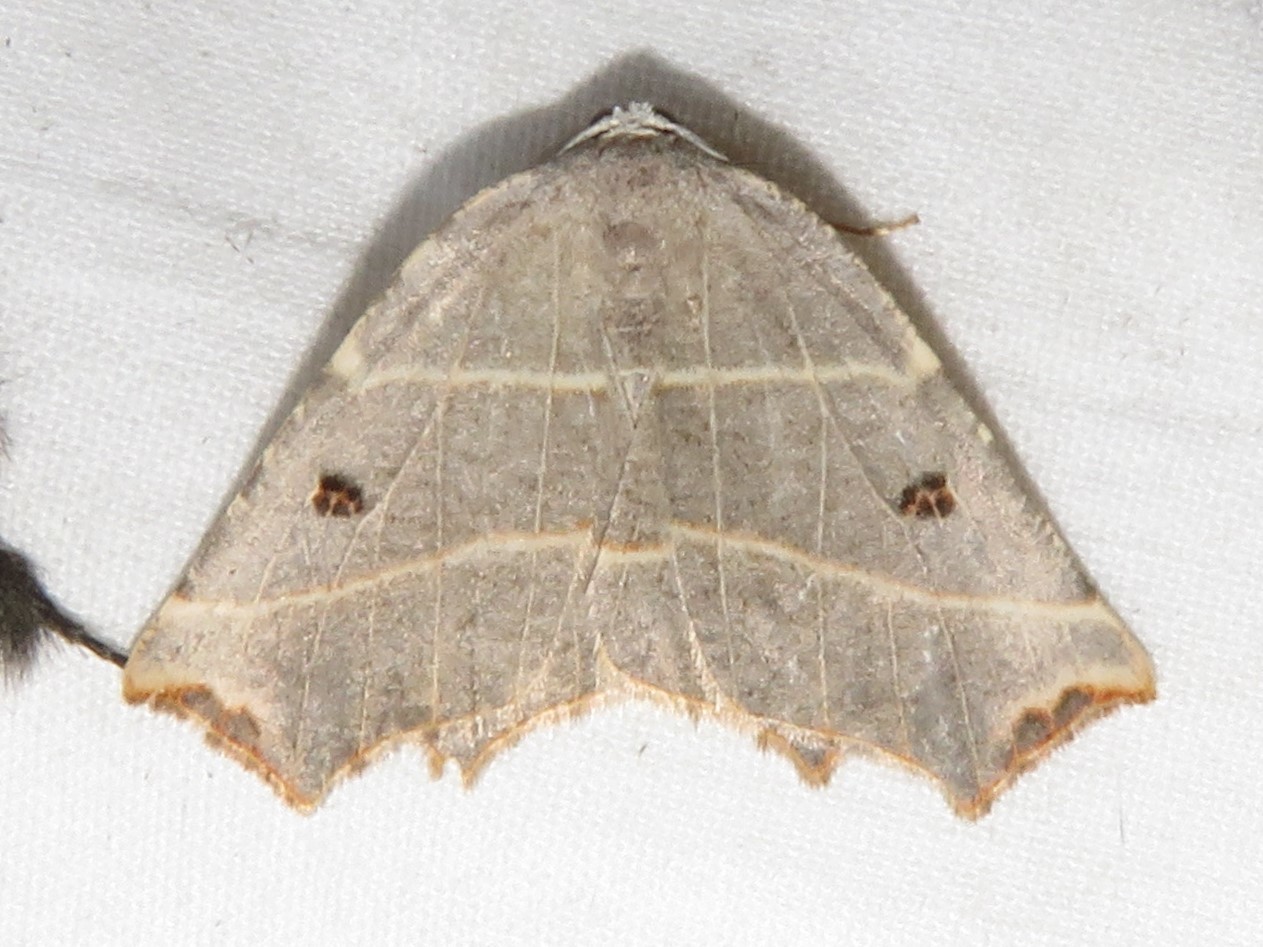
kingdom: Animalia
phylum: Arthropoda
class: Insecta
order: Lepidoptera
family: Geometridae
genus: Metanema
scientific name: Metanema inatomaria
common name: Pale metanema
